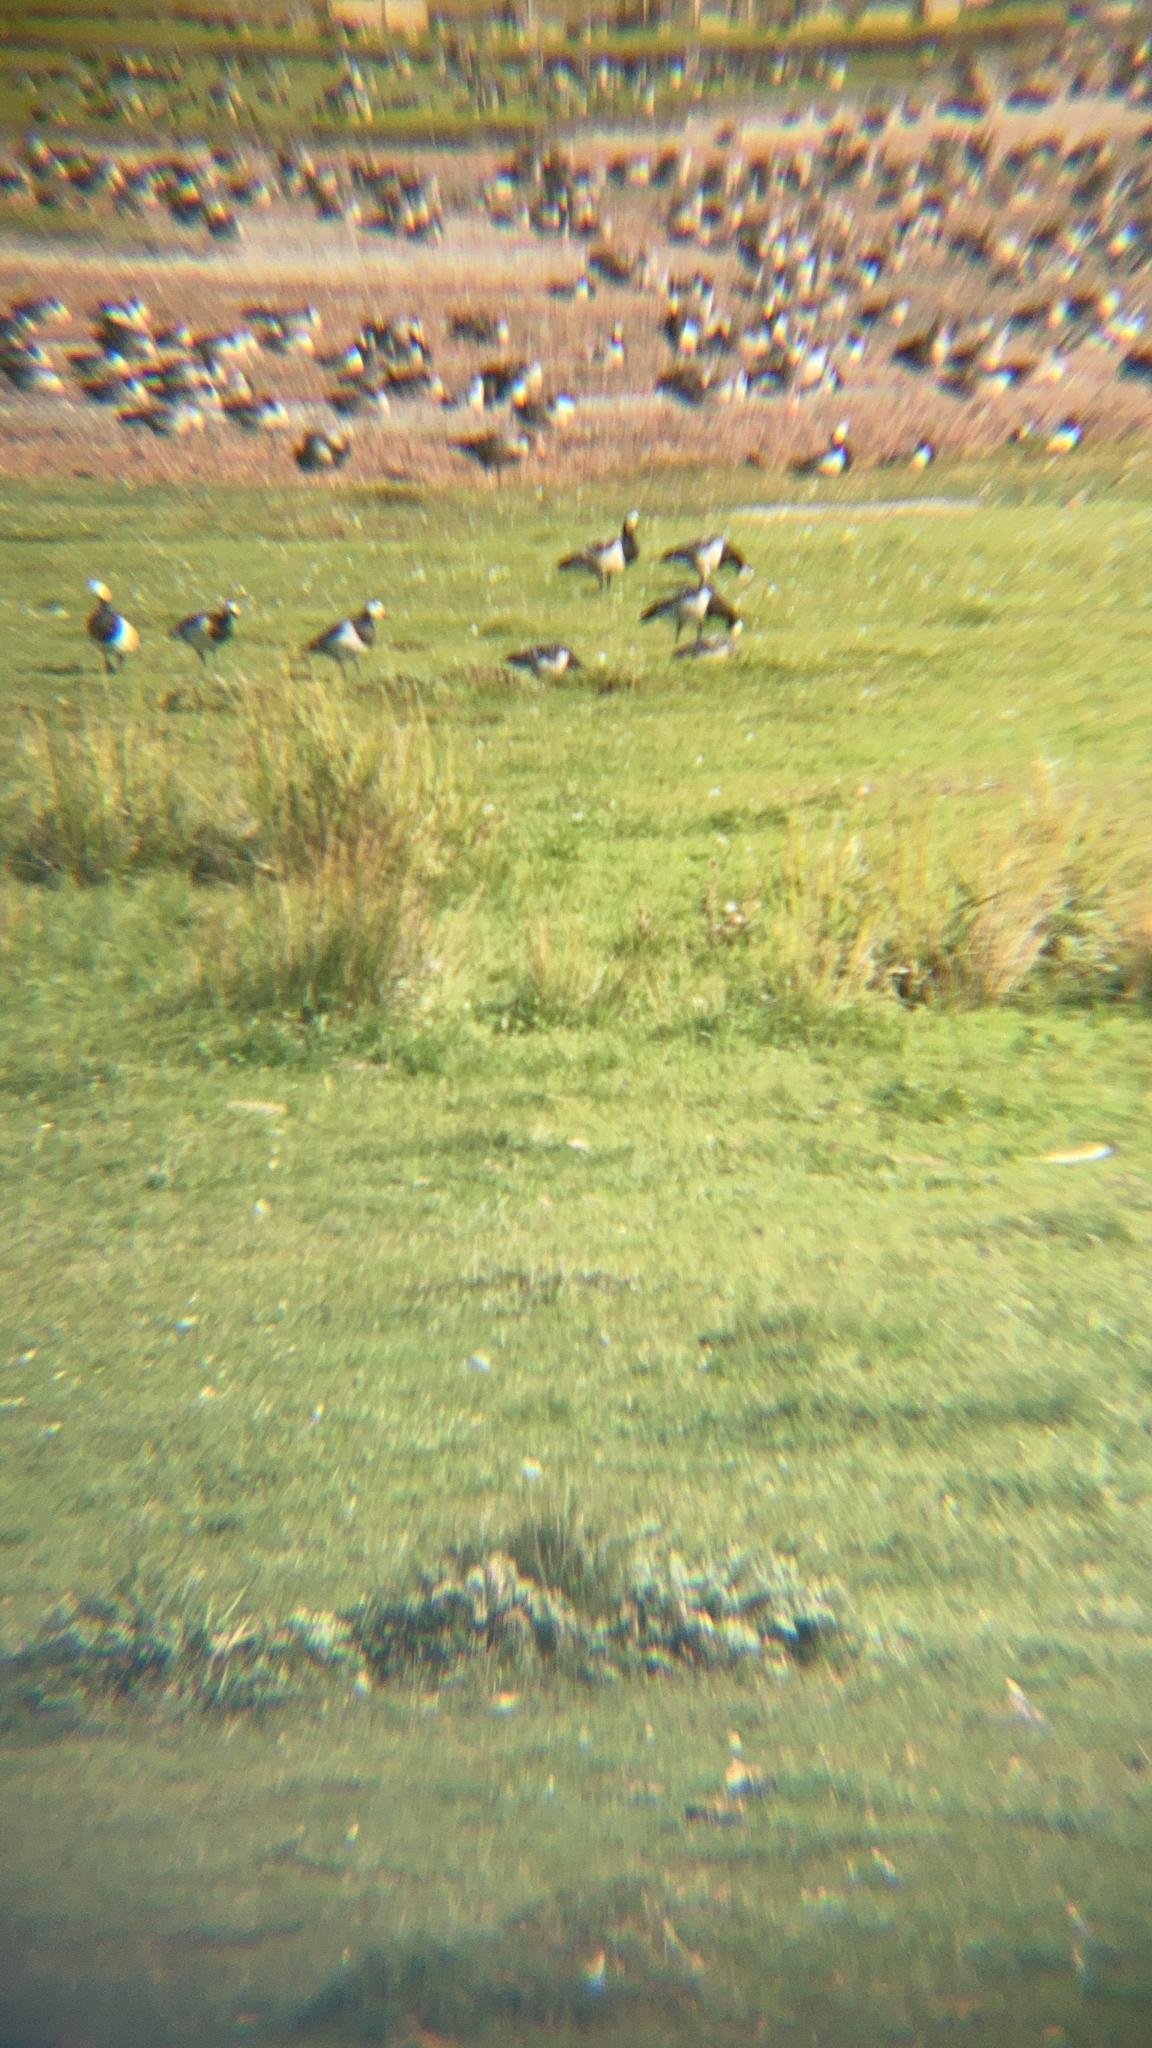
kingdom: Animalia
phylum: Chordata
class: Aves
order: Anseriformes
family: Anatidae
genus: Branta
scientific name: Branta leucopsis
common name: Barnacle goose
